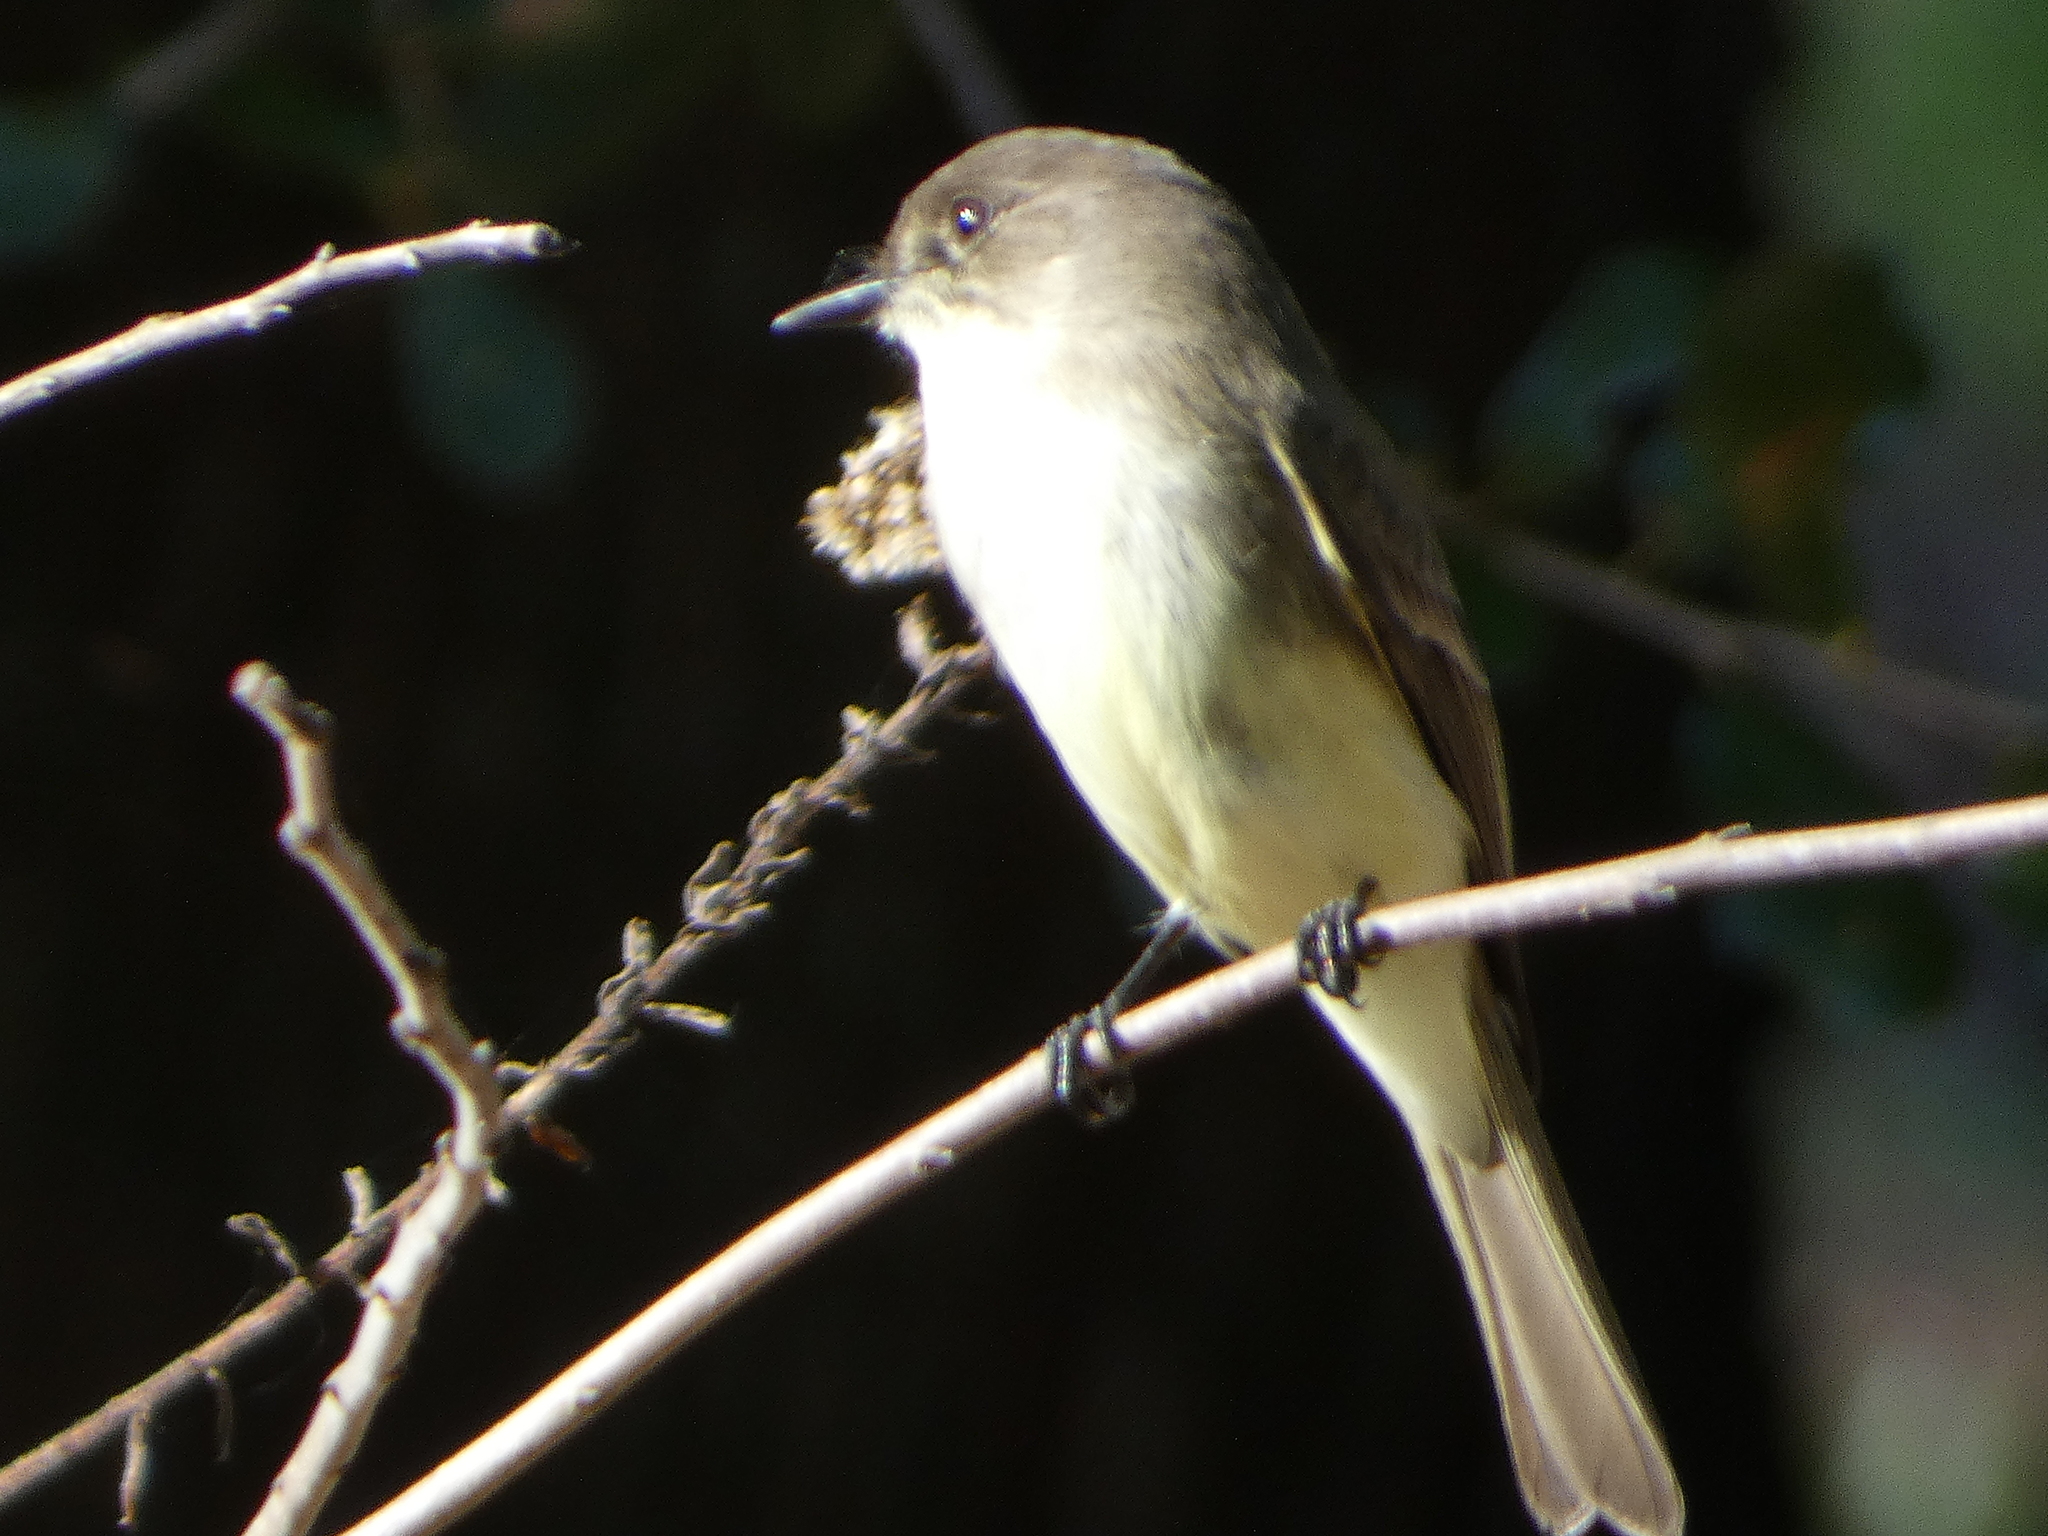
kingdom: Animalia
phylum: Chordata
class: Aves
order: Passeriformes
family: Tyrannidae
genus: Sayornis
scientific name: Sayornis phoebe
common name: Eastern phoebe
